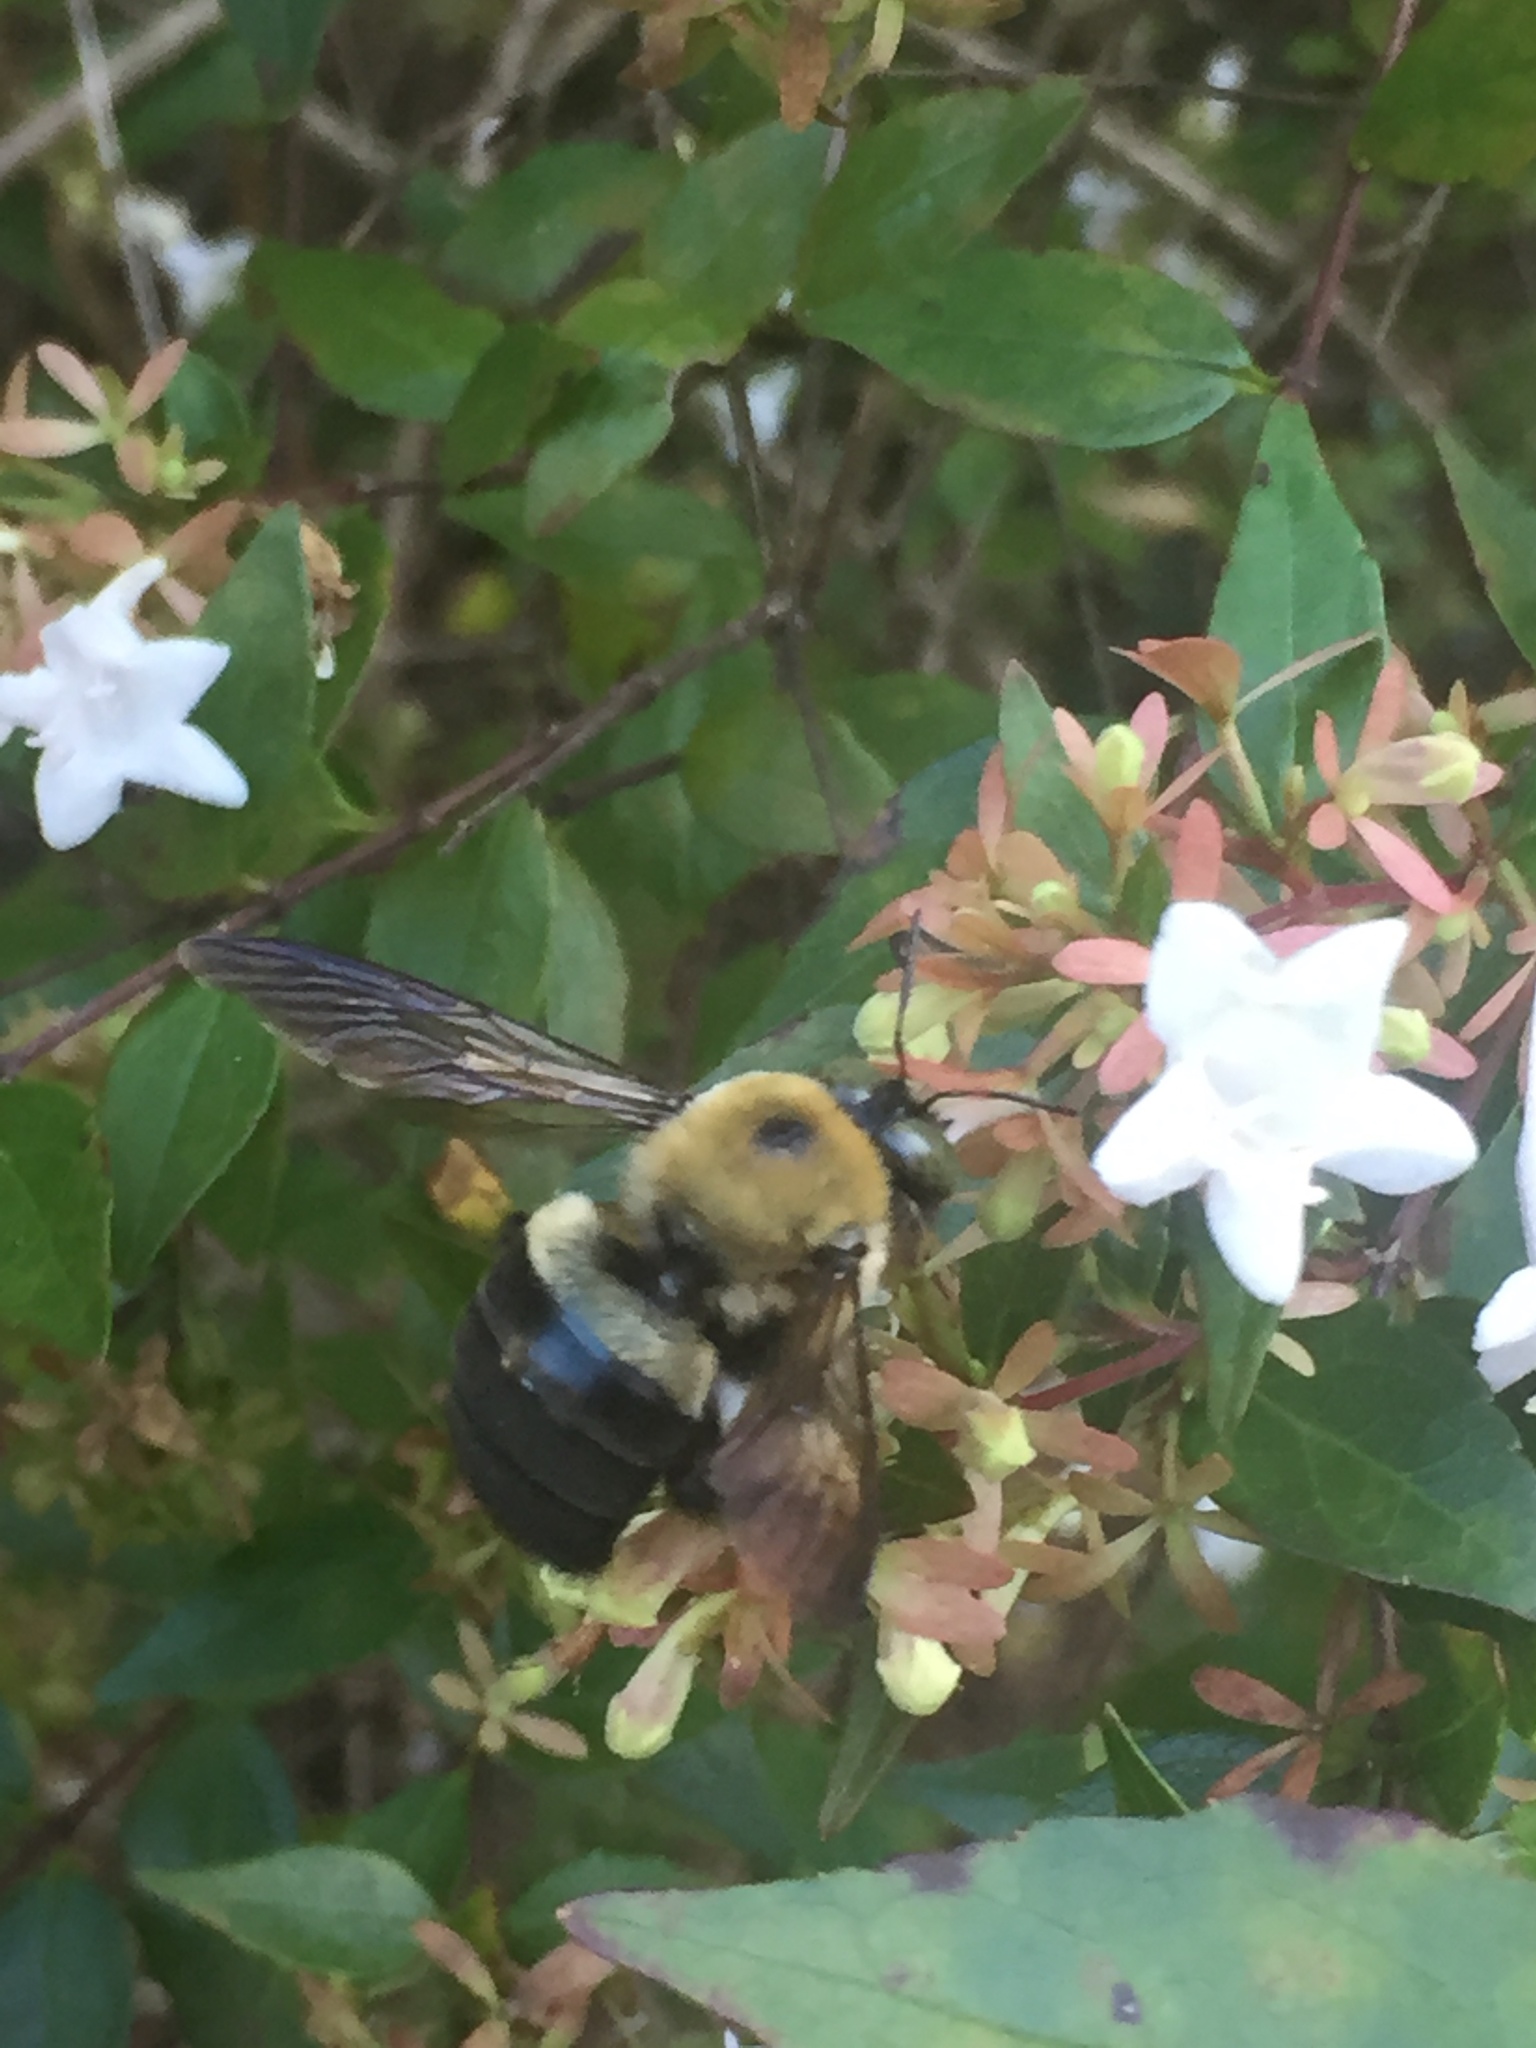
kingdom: Animalia
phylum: Arthropoda
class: Insecta
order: Hymenoptera
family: Apidae
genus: Xylocopa
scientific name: Xylocopa virginica
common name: Carpenter bee
